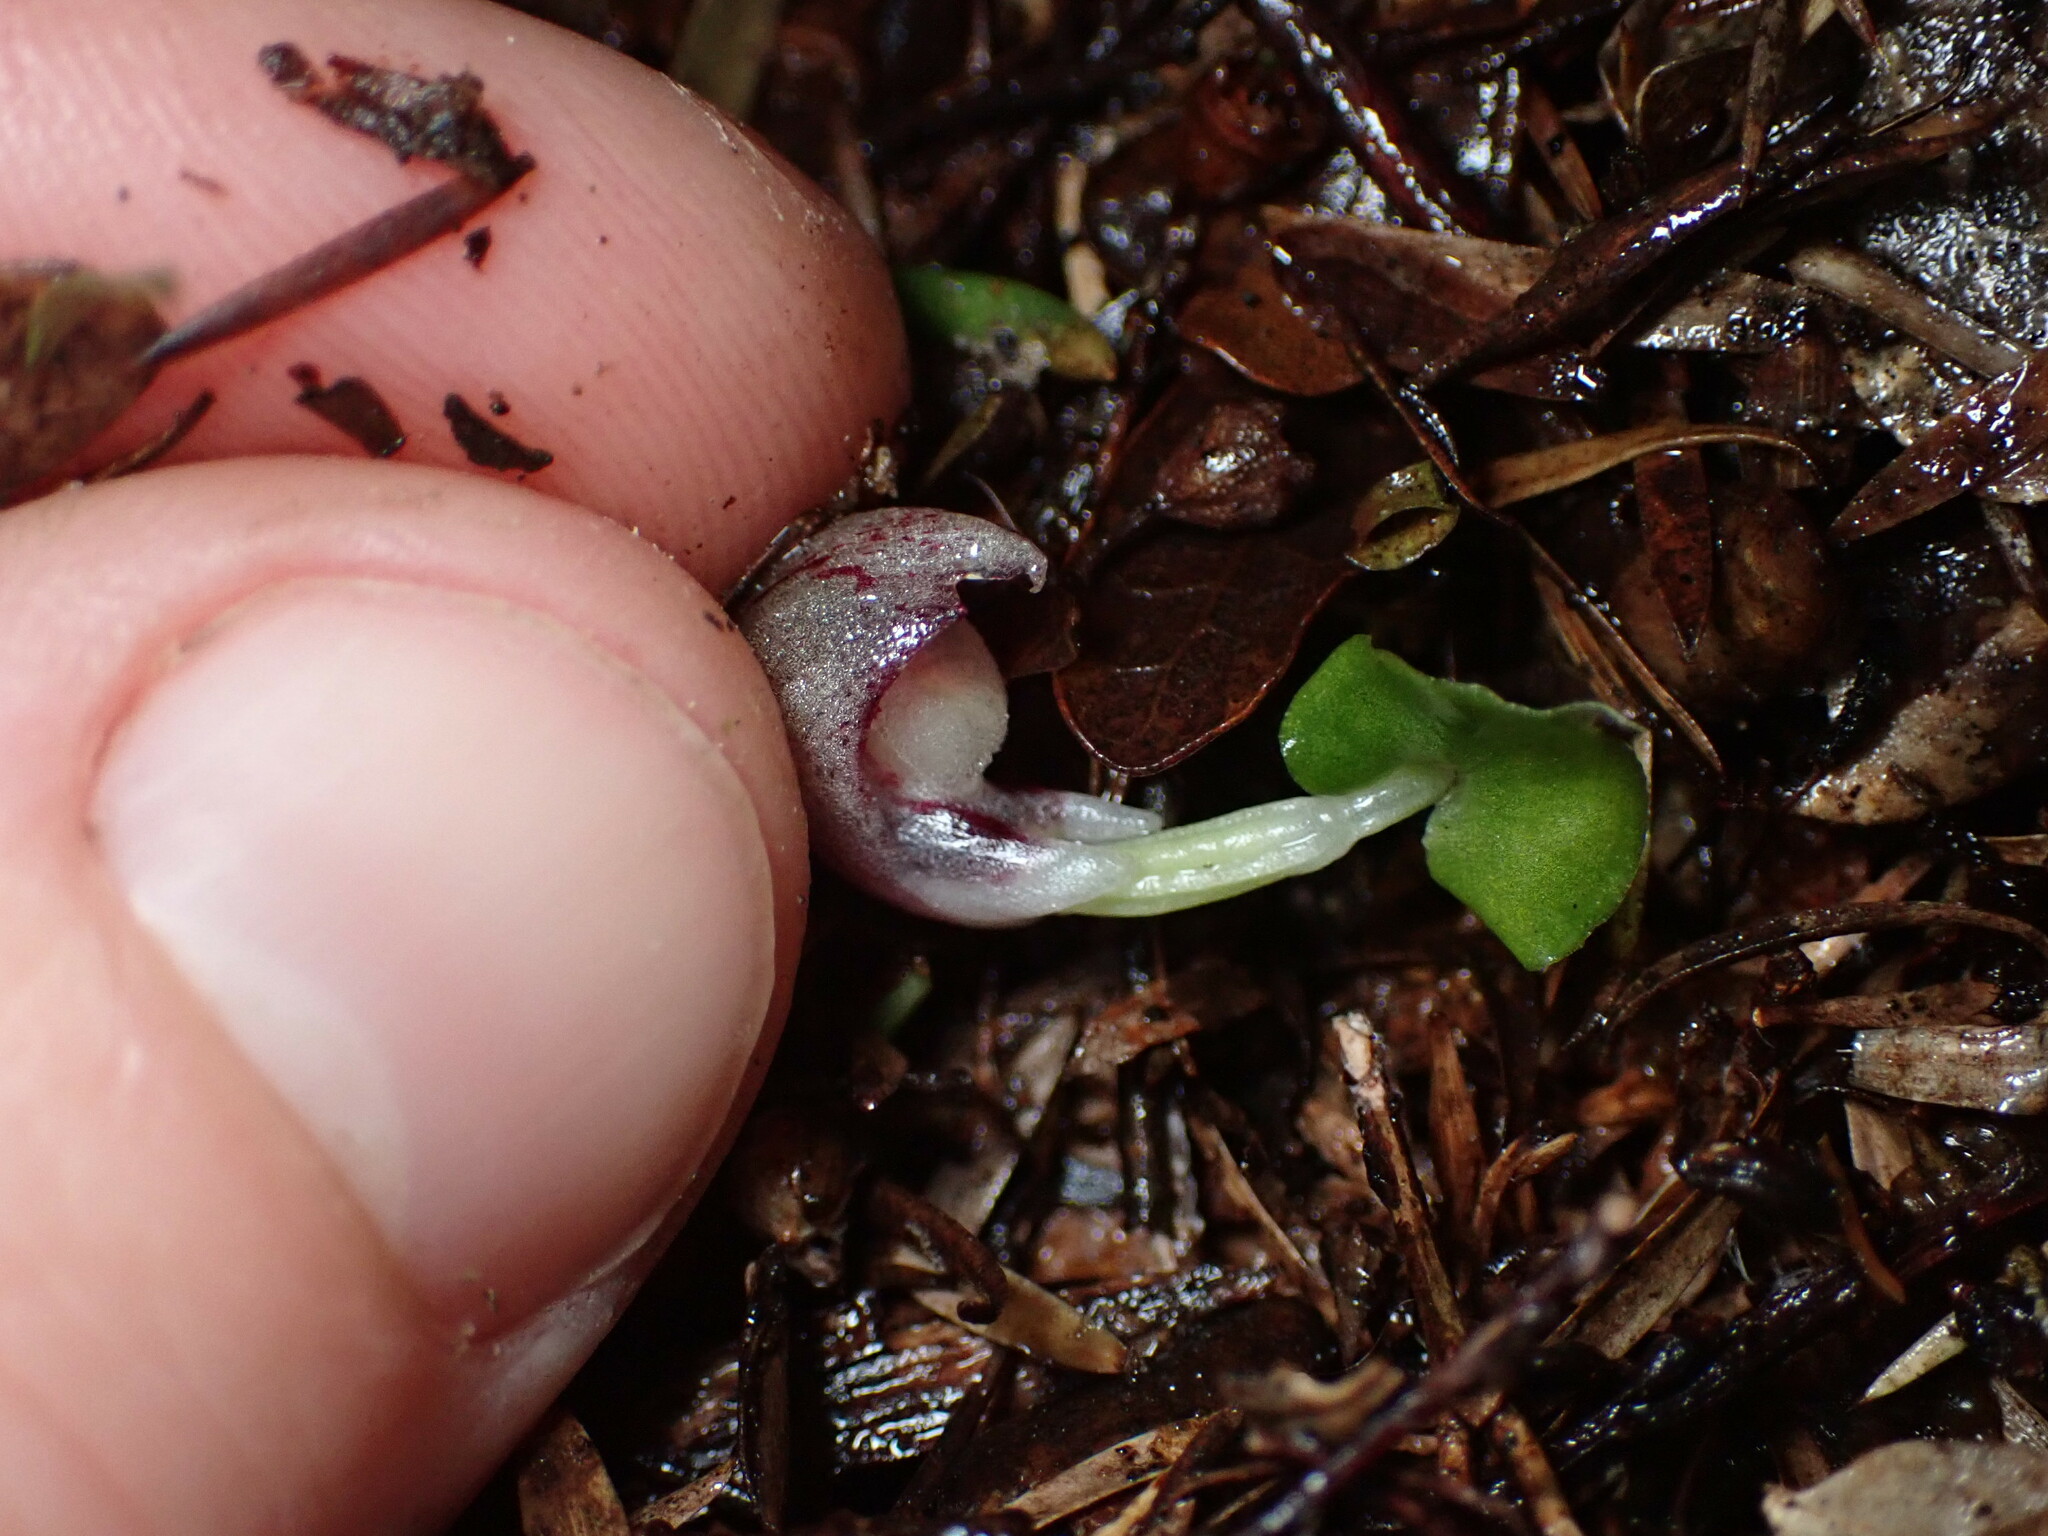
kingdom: Plantae
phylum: Tracheophyta
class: Liliopsida
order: Asparagales
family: Orchidaceae
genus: Corybas
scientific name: Corybas cheesemanii
